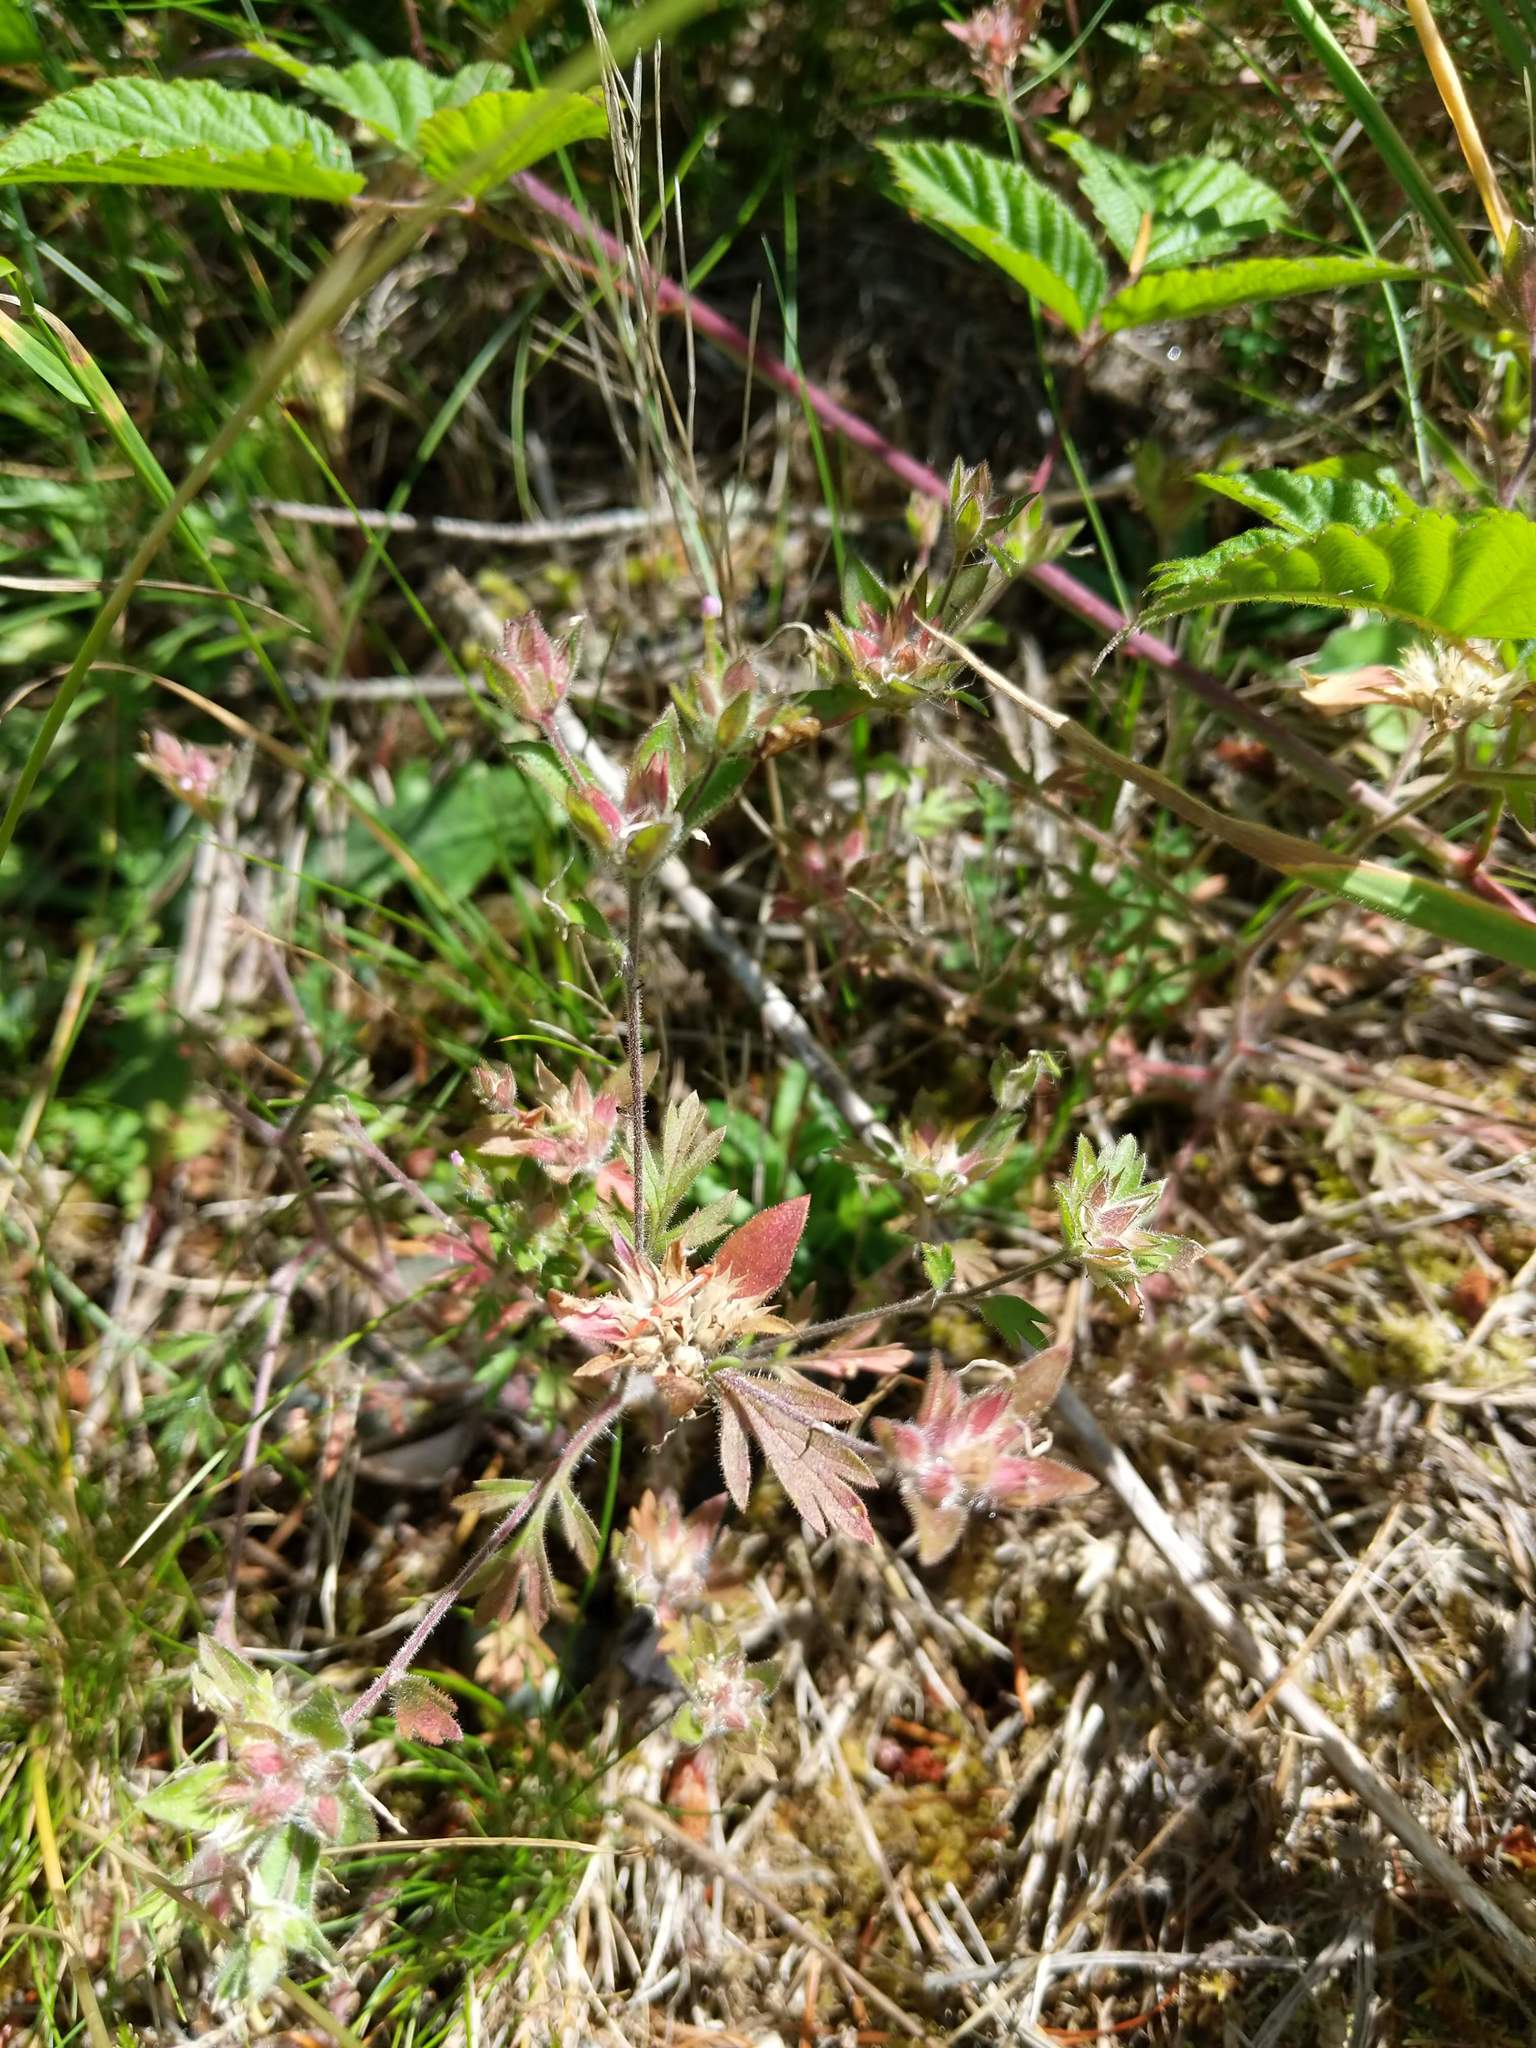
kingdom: Plantae
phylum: Tracheophyta
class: Magnoliopsida
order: Ericales
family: Polemoniaceae
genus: Collomia
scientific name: Collomia heterophylla
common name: Variable-leaved collomia
